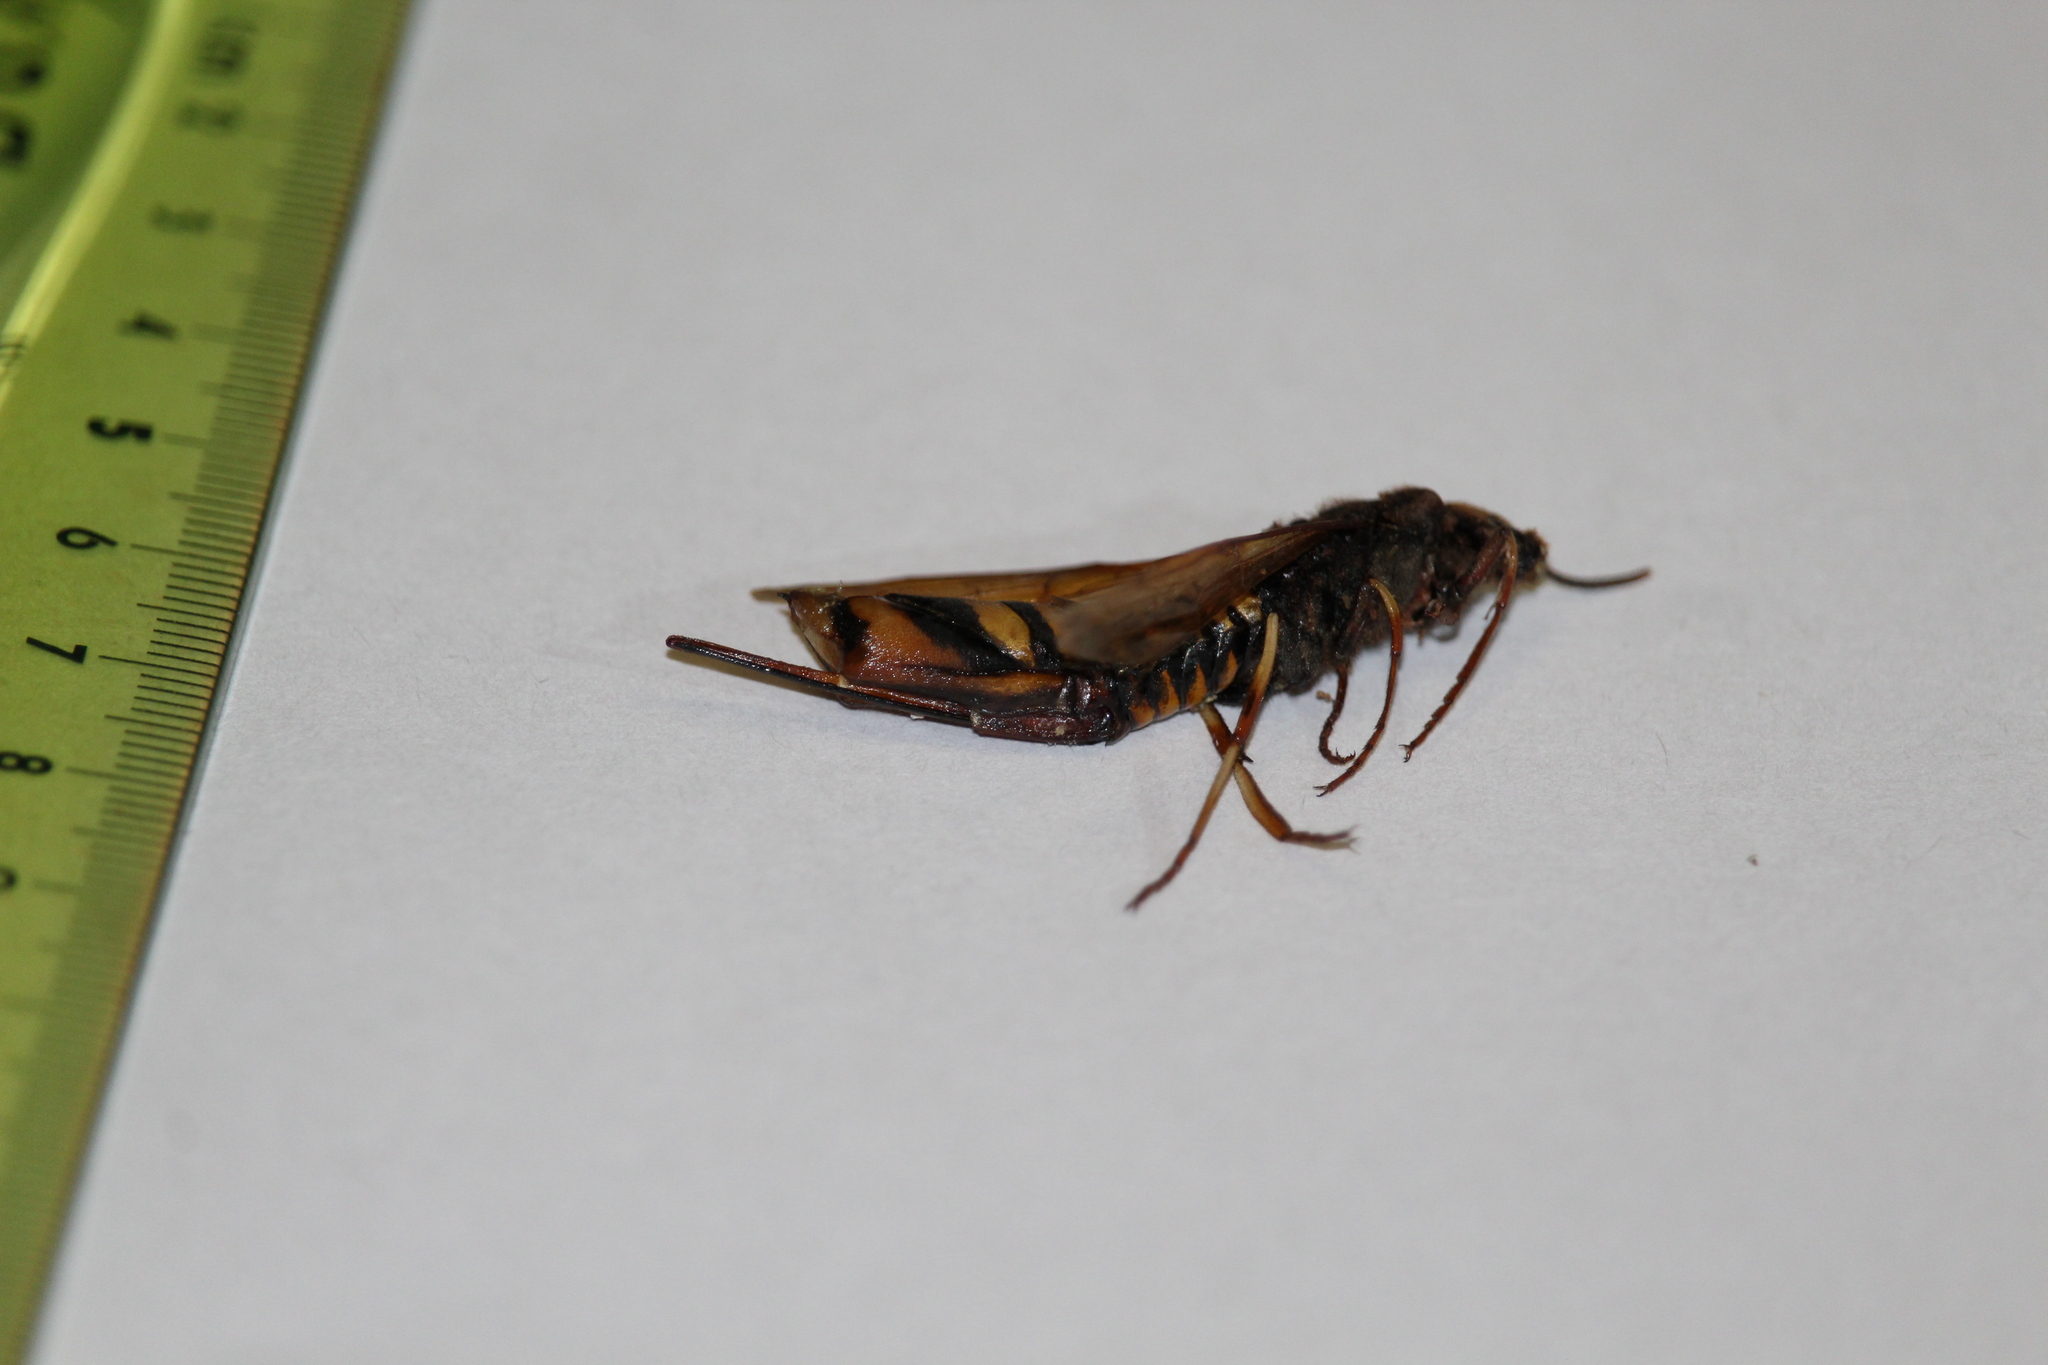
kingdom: Animalia
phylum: Arthropoda
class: Insecta
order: Hymenoptera
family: Siricidae
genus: Tremex
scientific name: Tremex fuscicornis
